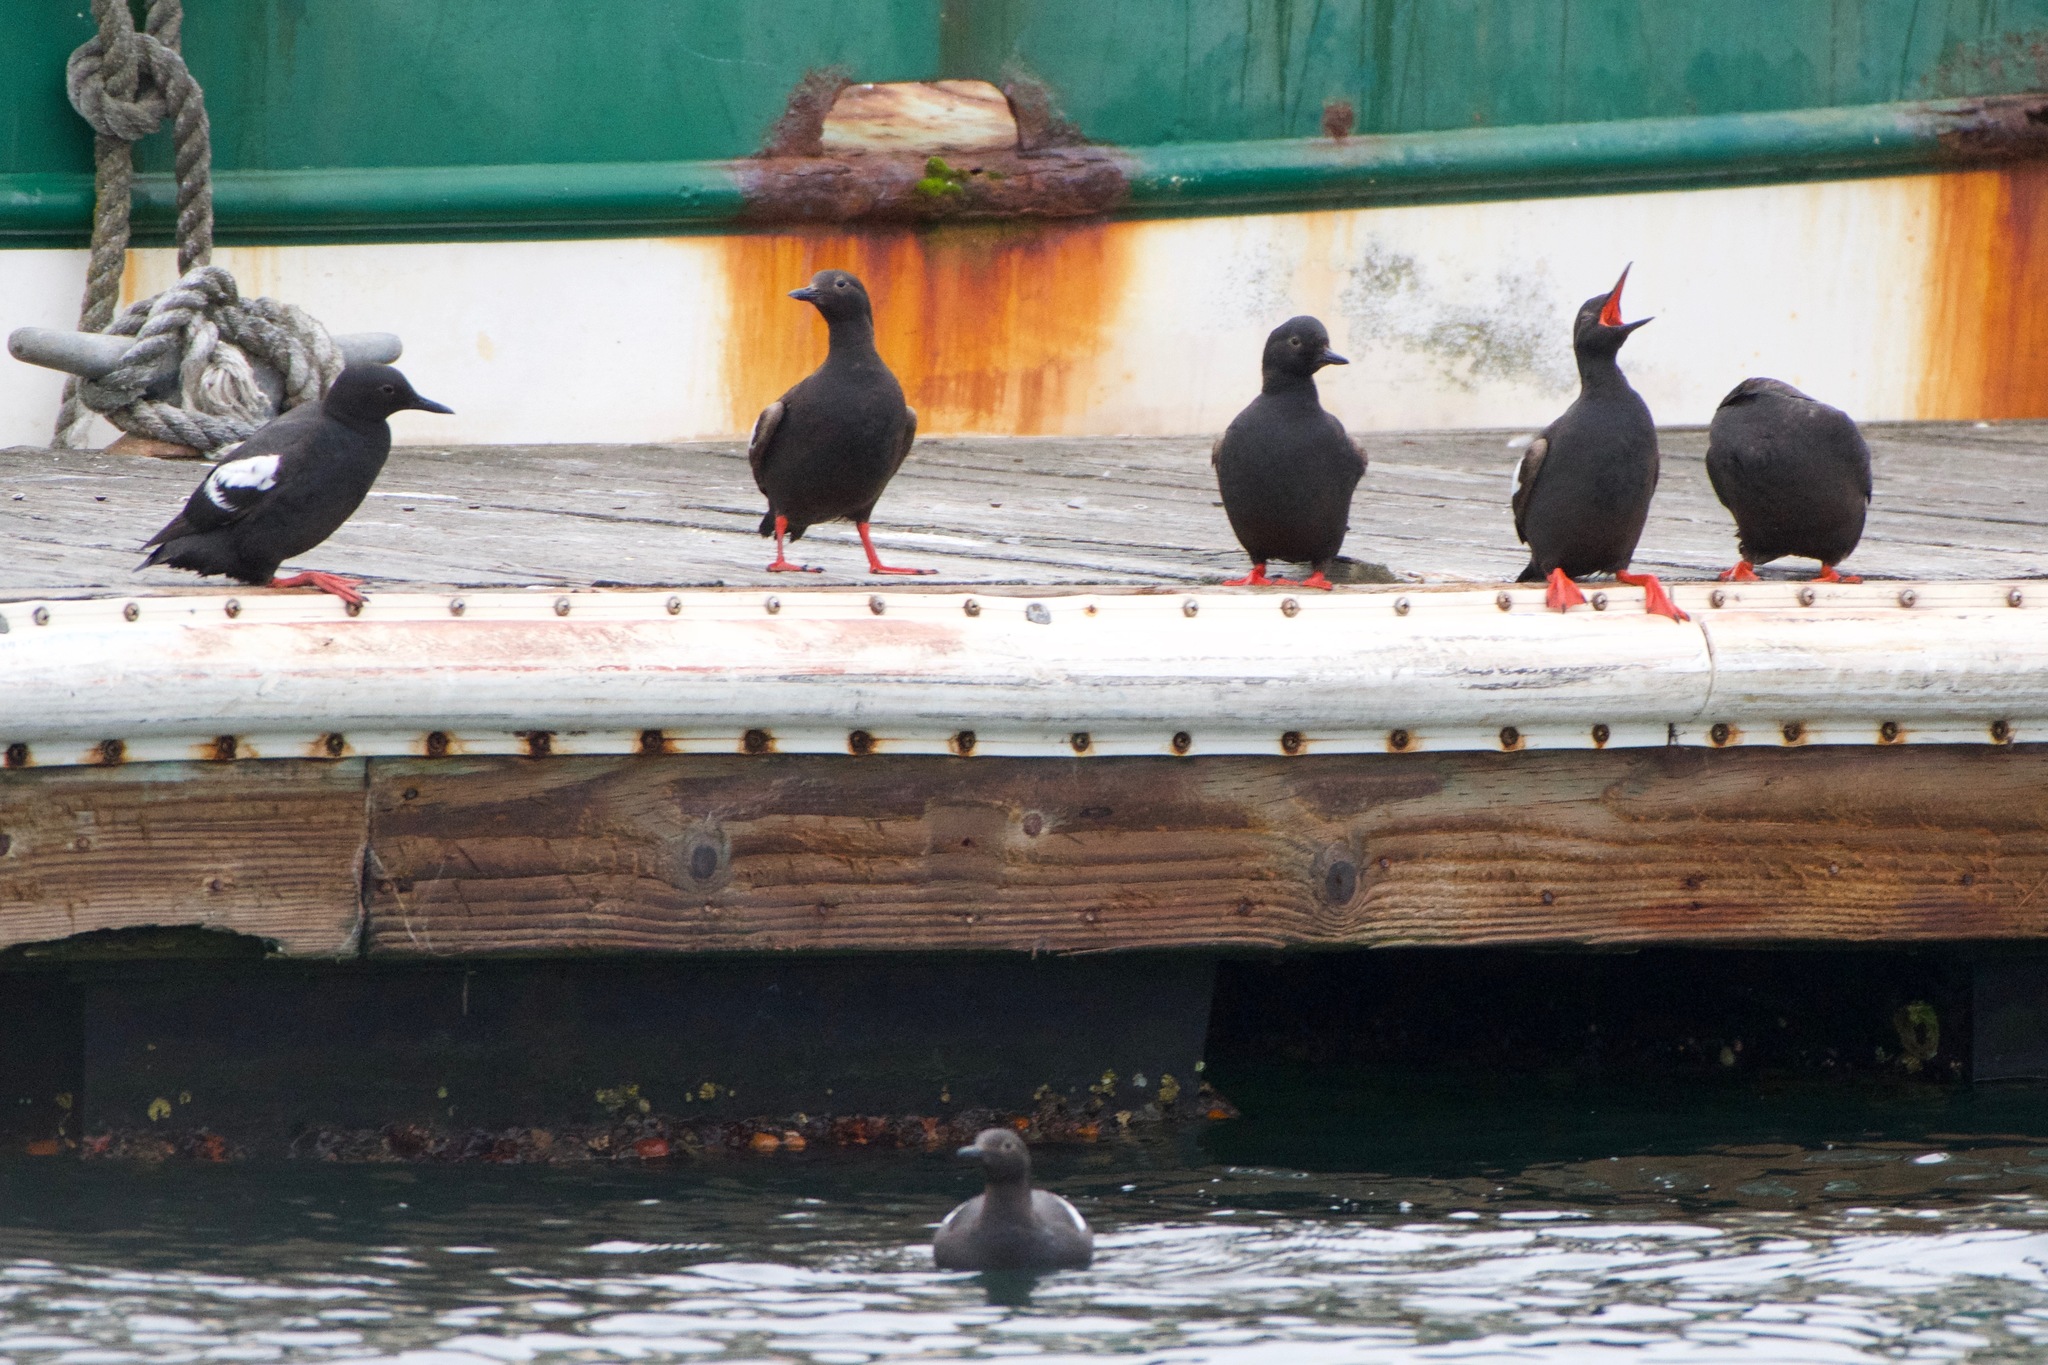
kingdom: Animalia
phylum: Chordata
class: Aves
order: Charadriiformes
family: Alcidae
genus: Cepphus
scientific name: Cepphus columba
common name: Pigeon guillemot
